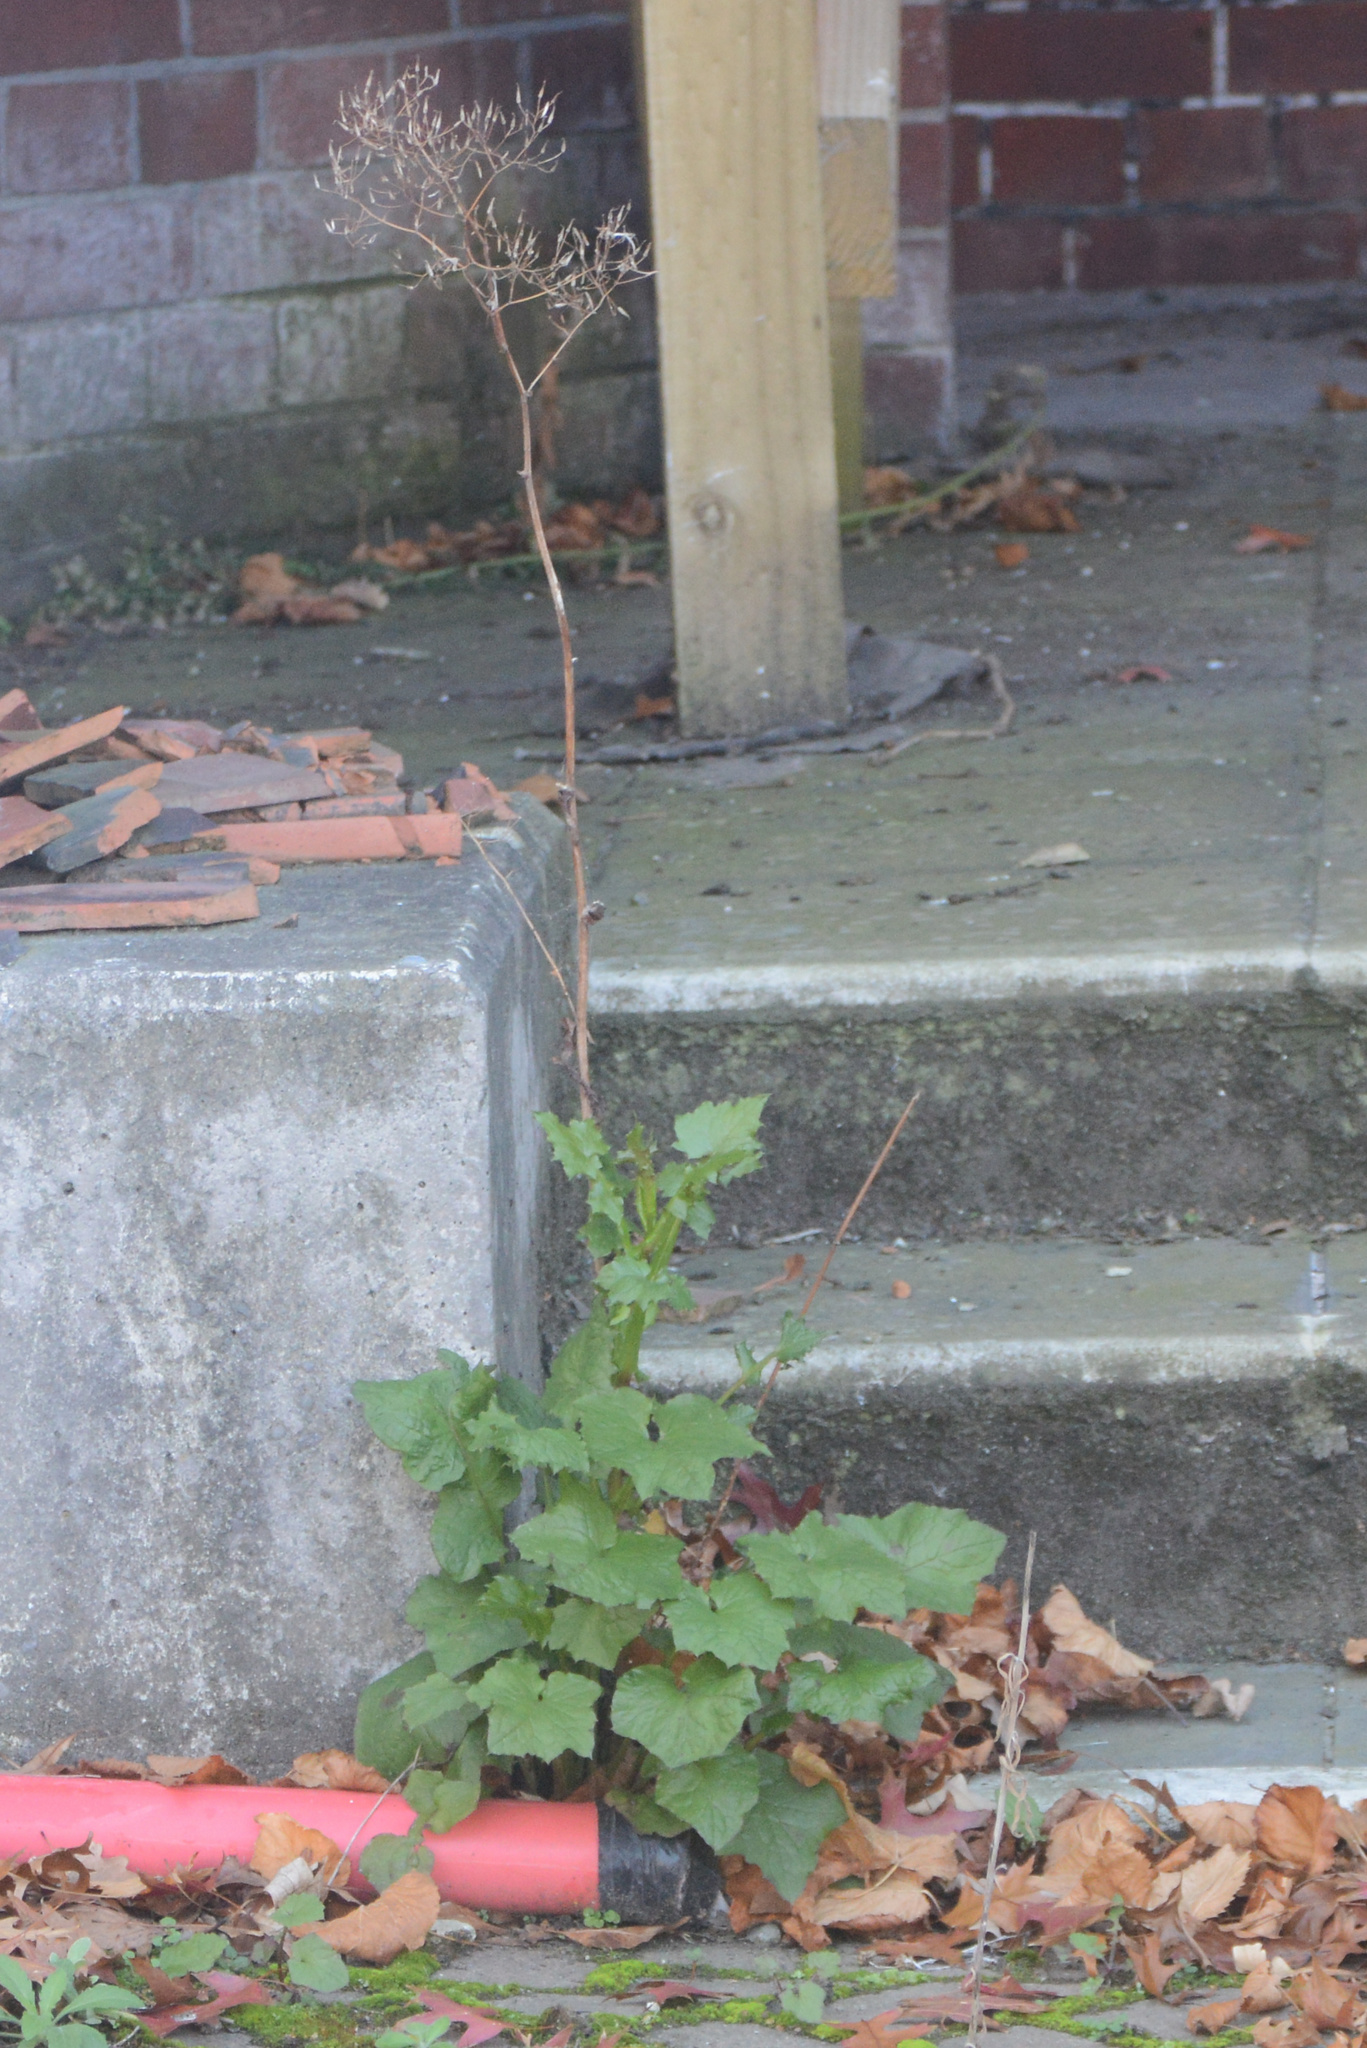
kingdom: Plantae
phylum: Tracheophyta
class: Magnoliopsida
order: Asterales
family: Asteraceae
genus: Mycelis
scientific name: Mycelis muralis
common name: Wall lettuce
